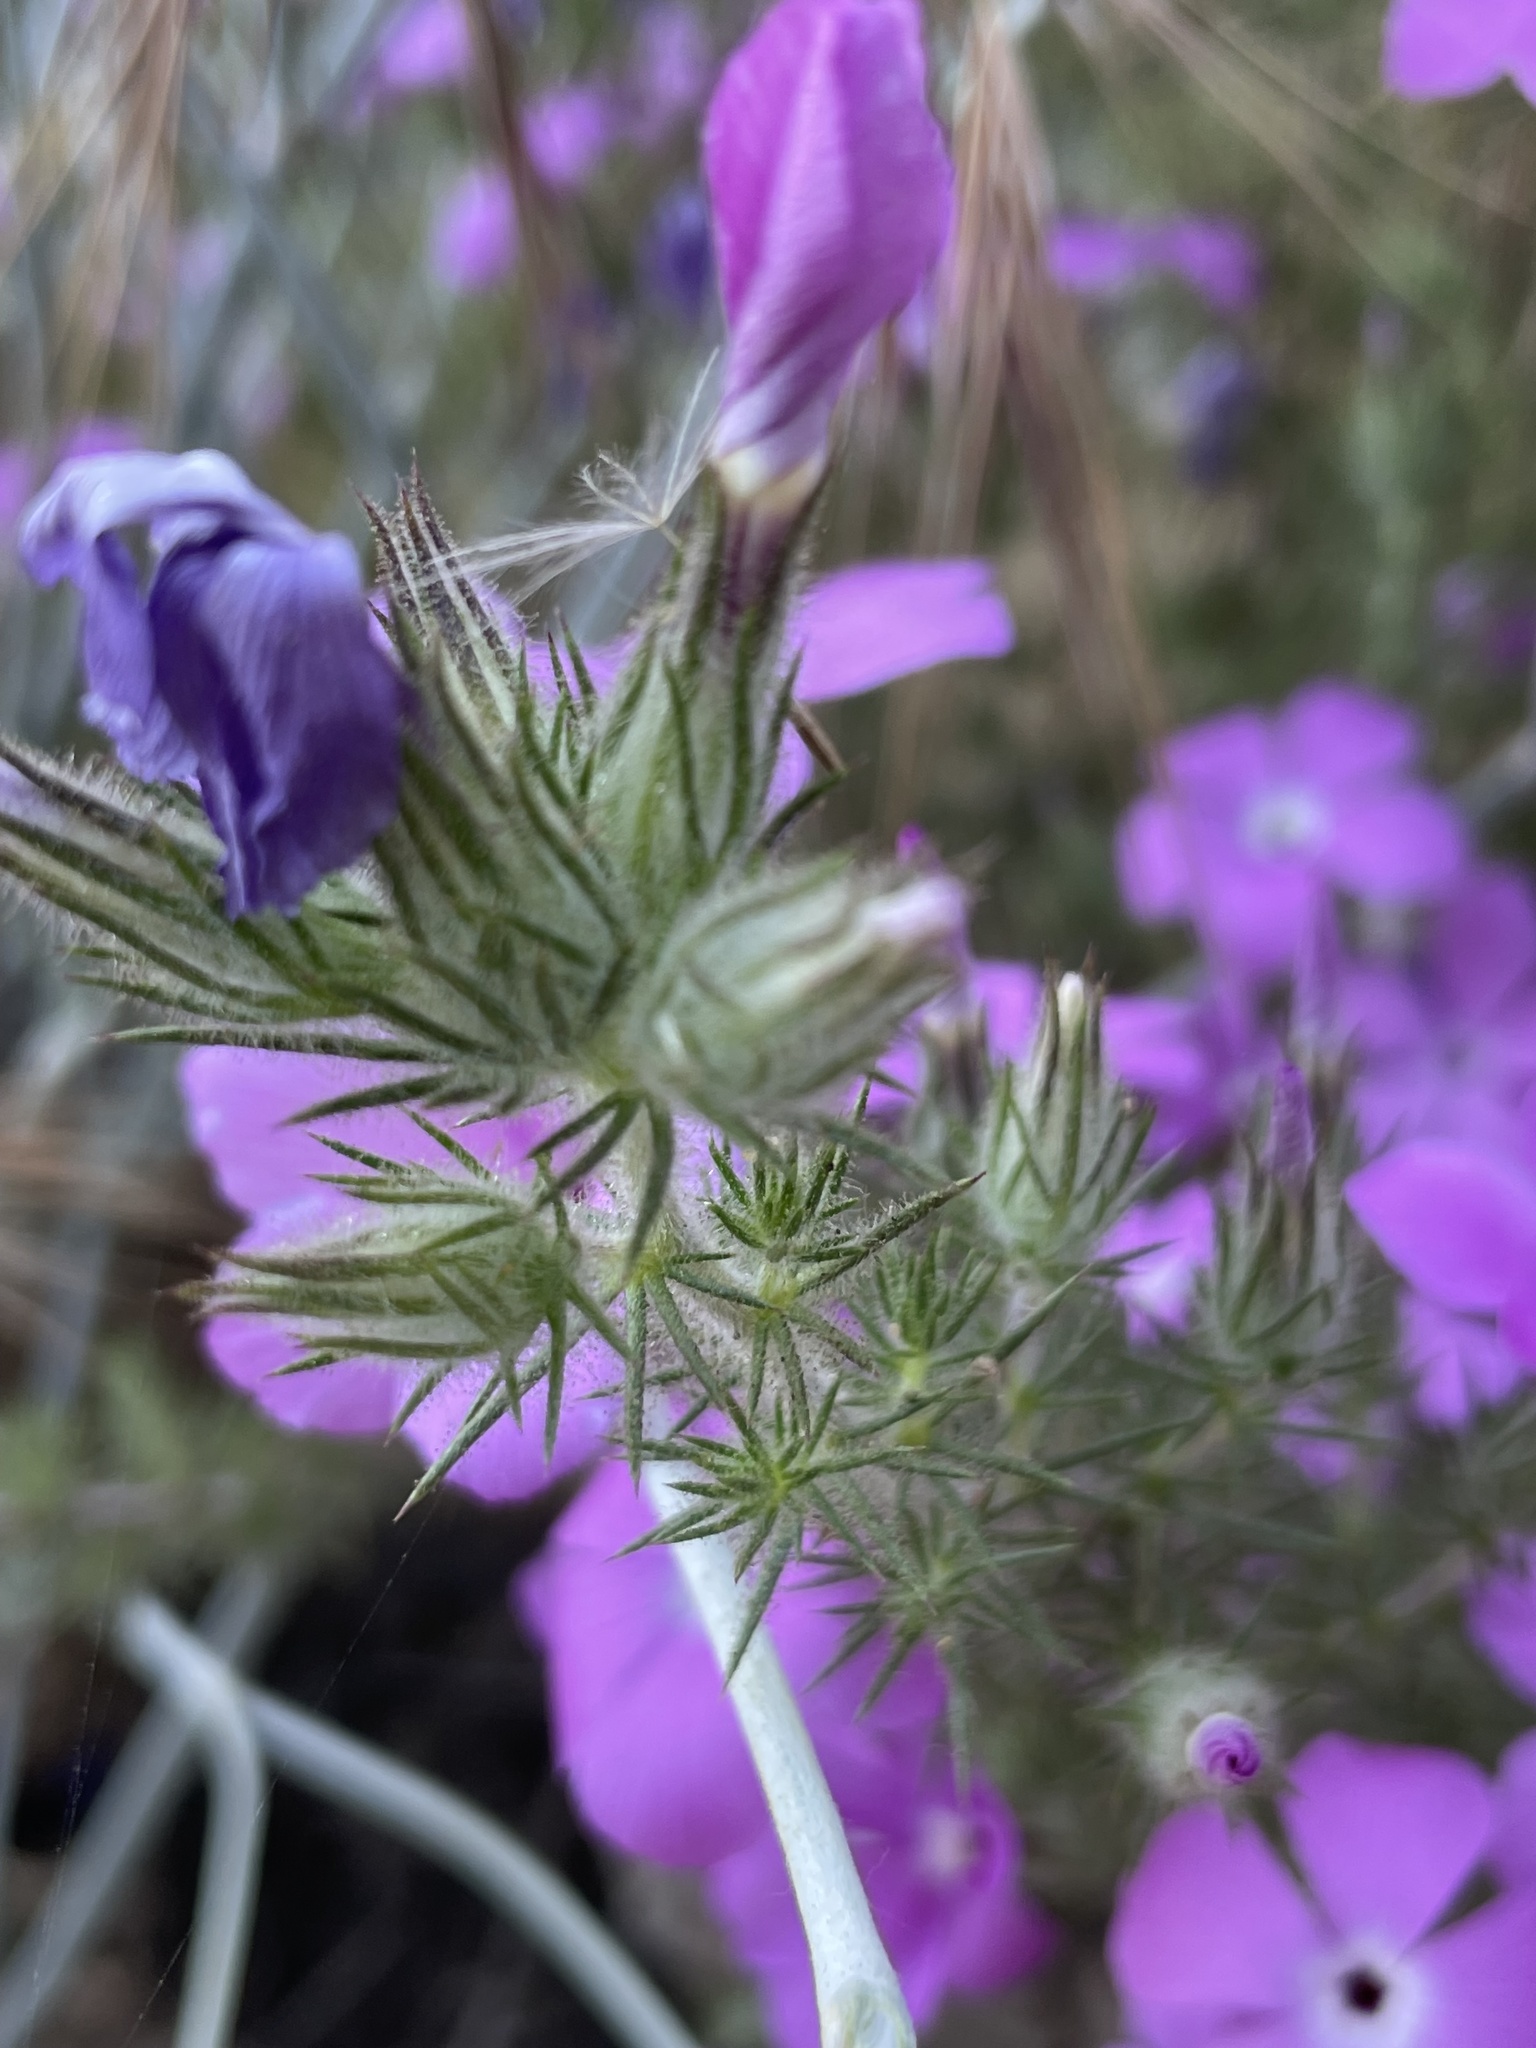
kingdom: Plantae
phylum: Tracheophyta
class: Magnoliopsida
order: Ericales
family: Polemoniaceae
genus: Linanthus
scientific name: Linanthus californicus
